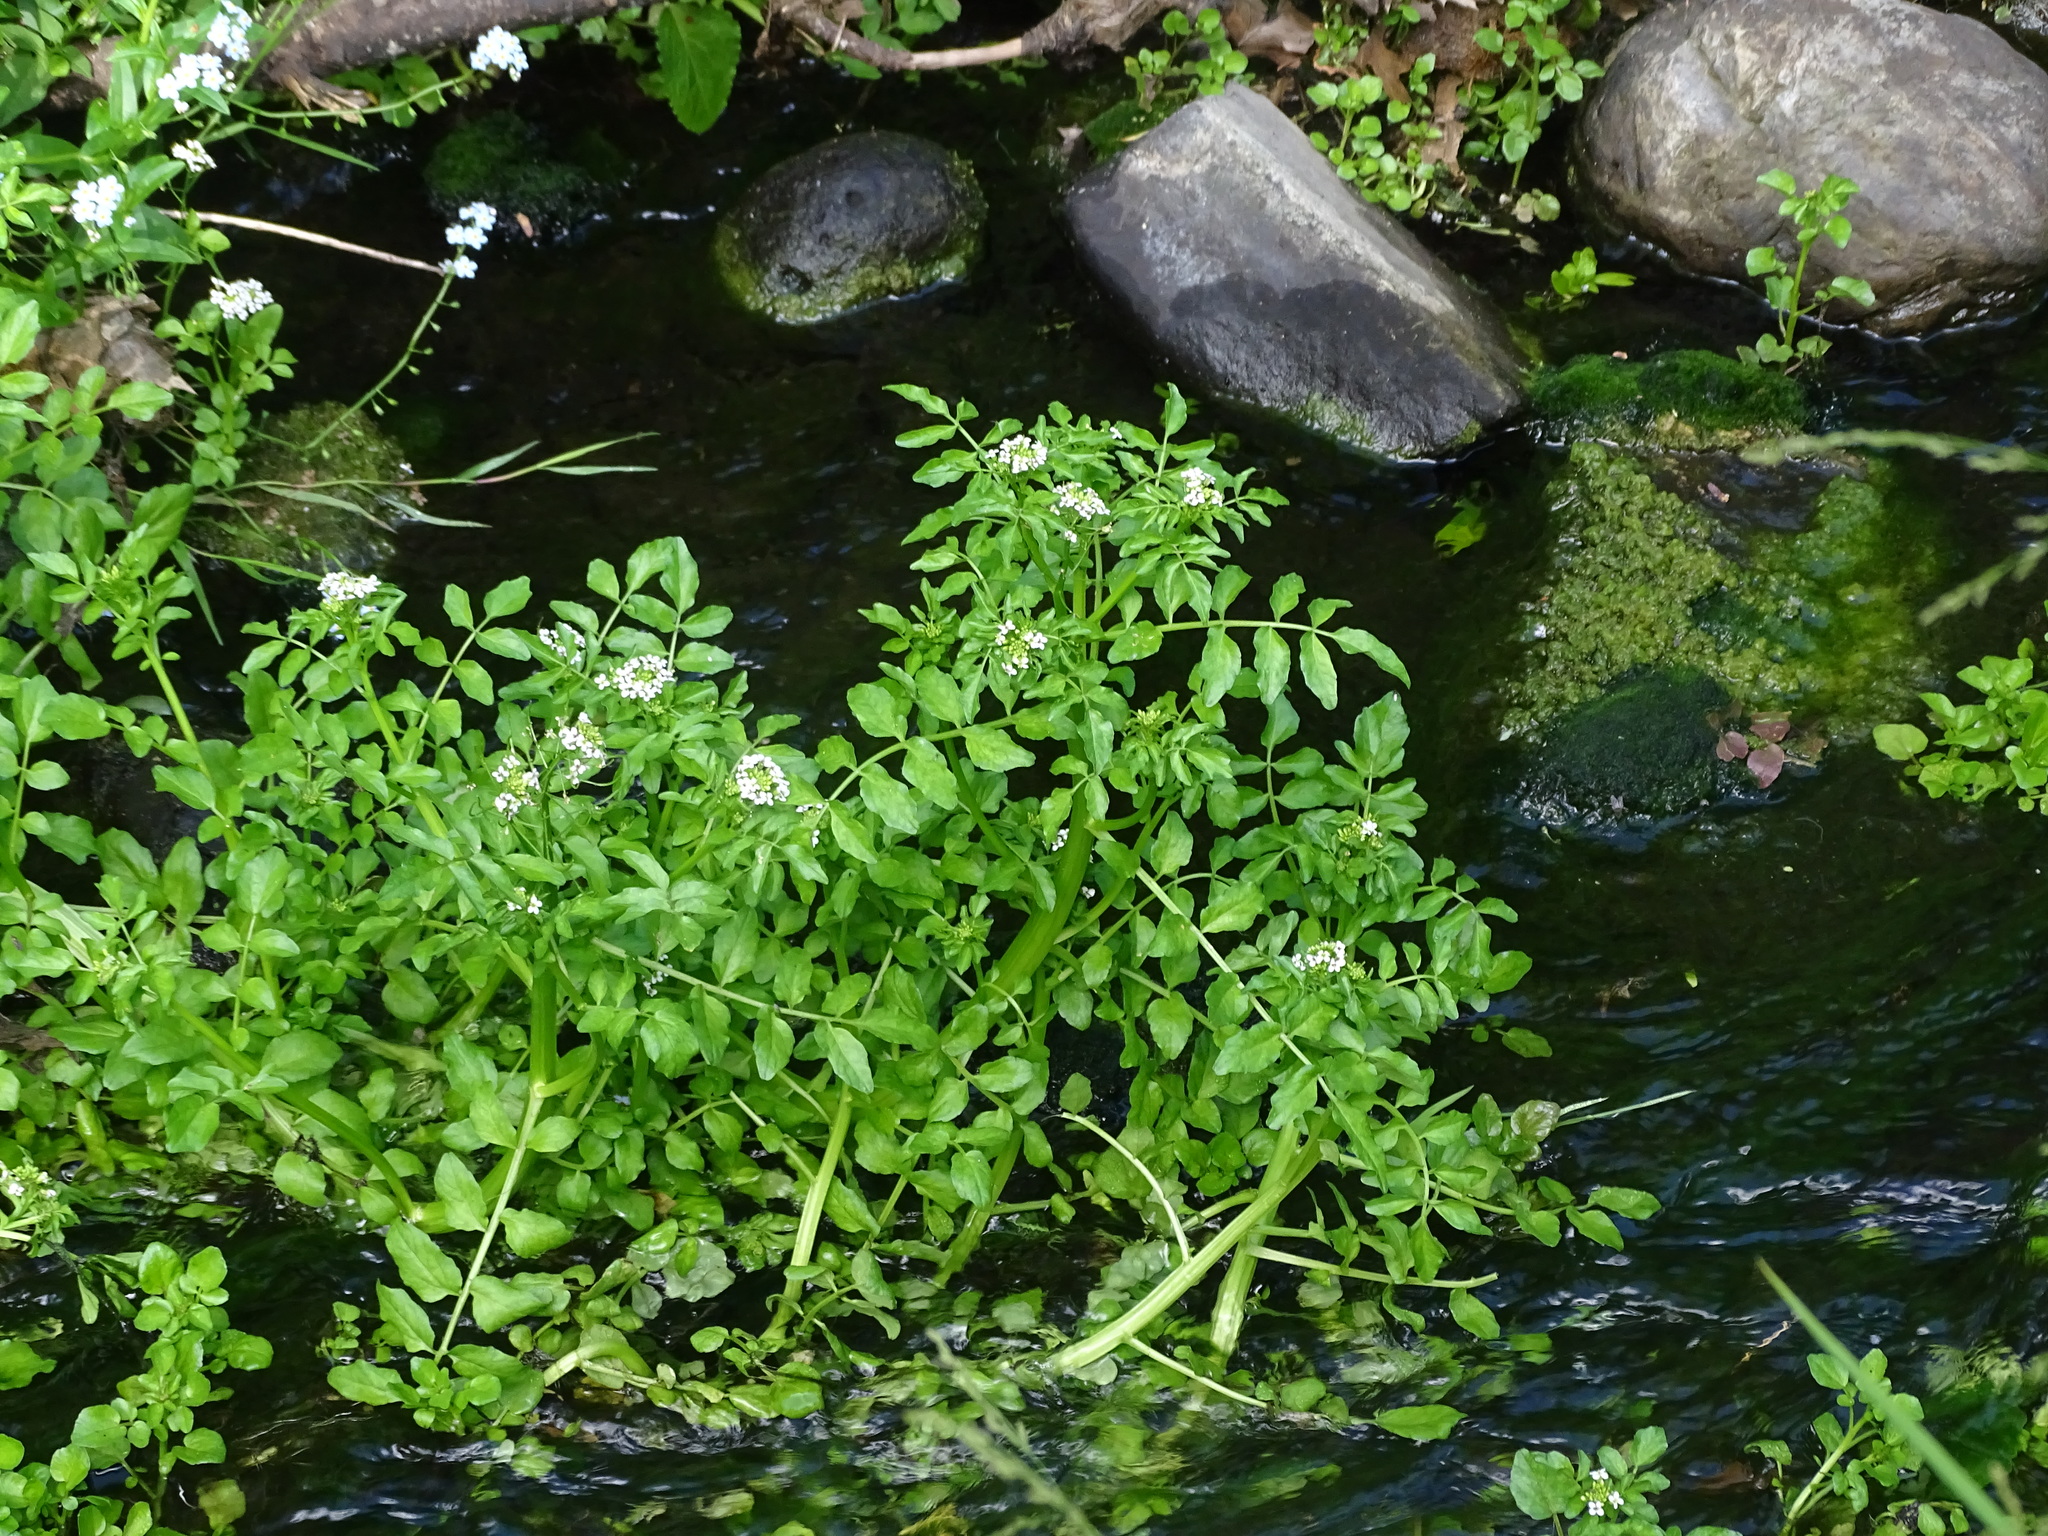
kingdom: Plantae
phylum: Tracheophyta
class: Magnoliopsida
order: Brassicales
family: Brassicaceae
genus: Nasturtium
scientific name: Nasturtium officinale
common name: Watercress
